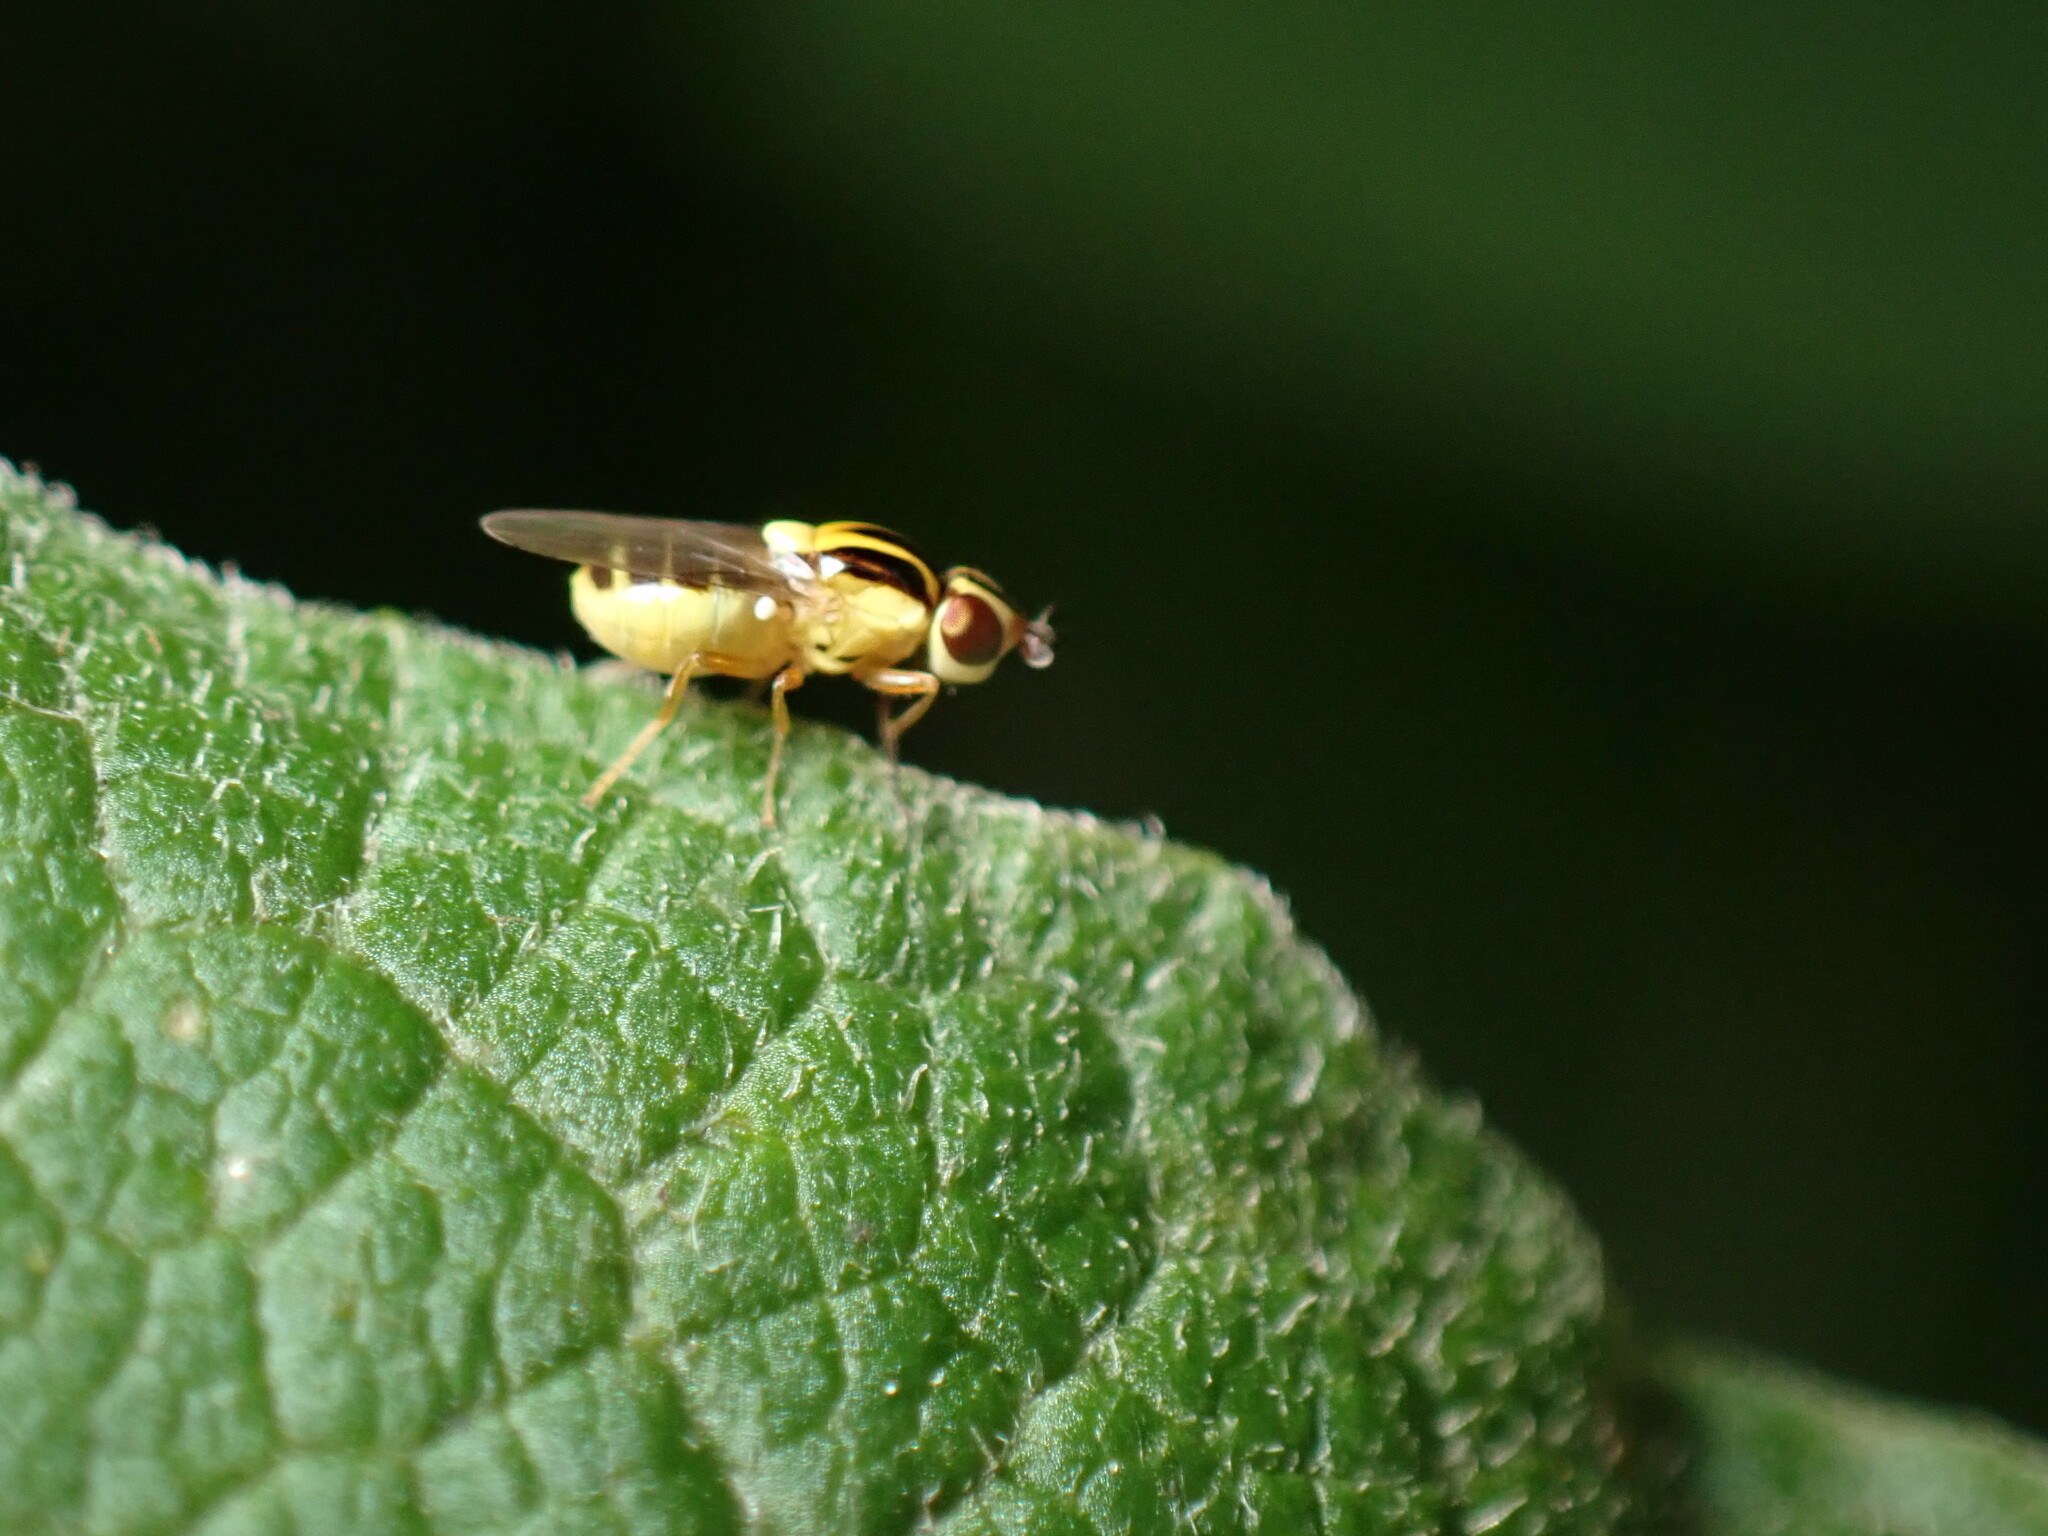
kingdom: Animalia
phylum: Arthropoda
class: Insecta
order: Diptera
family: Chloropidae
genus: Thaumatomyia
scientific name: Thaumatomyia glabra
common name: Chloropid fly
